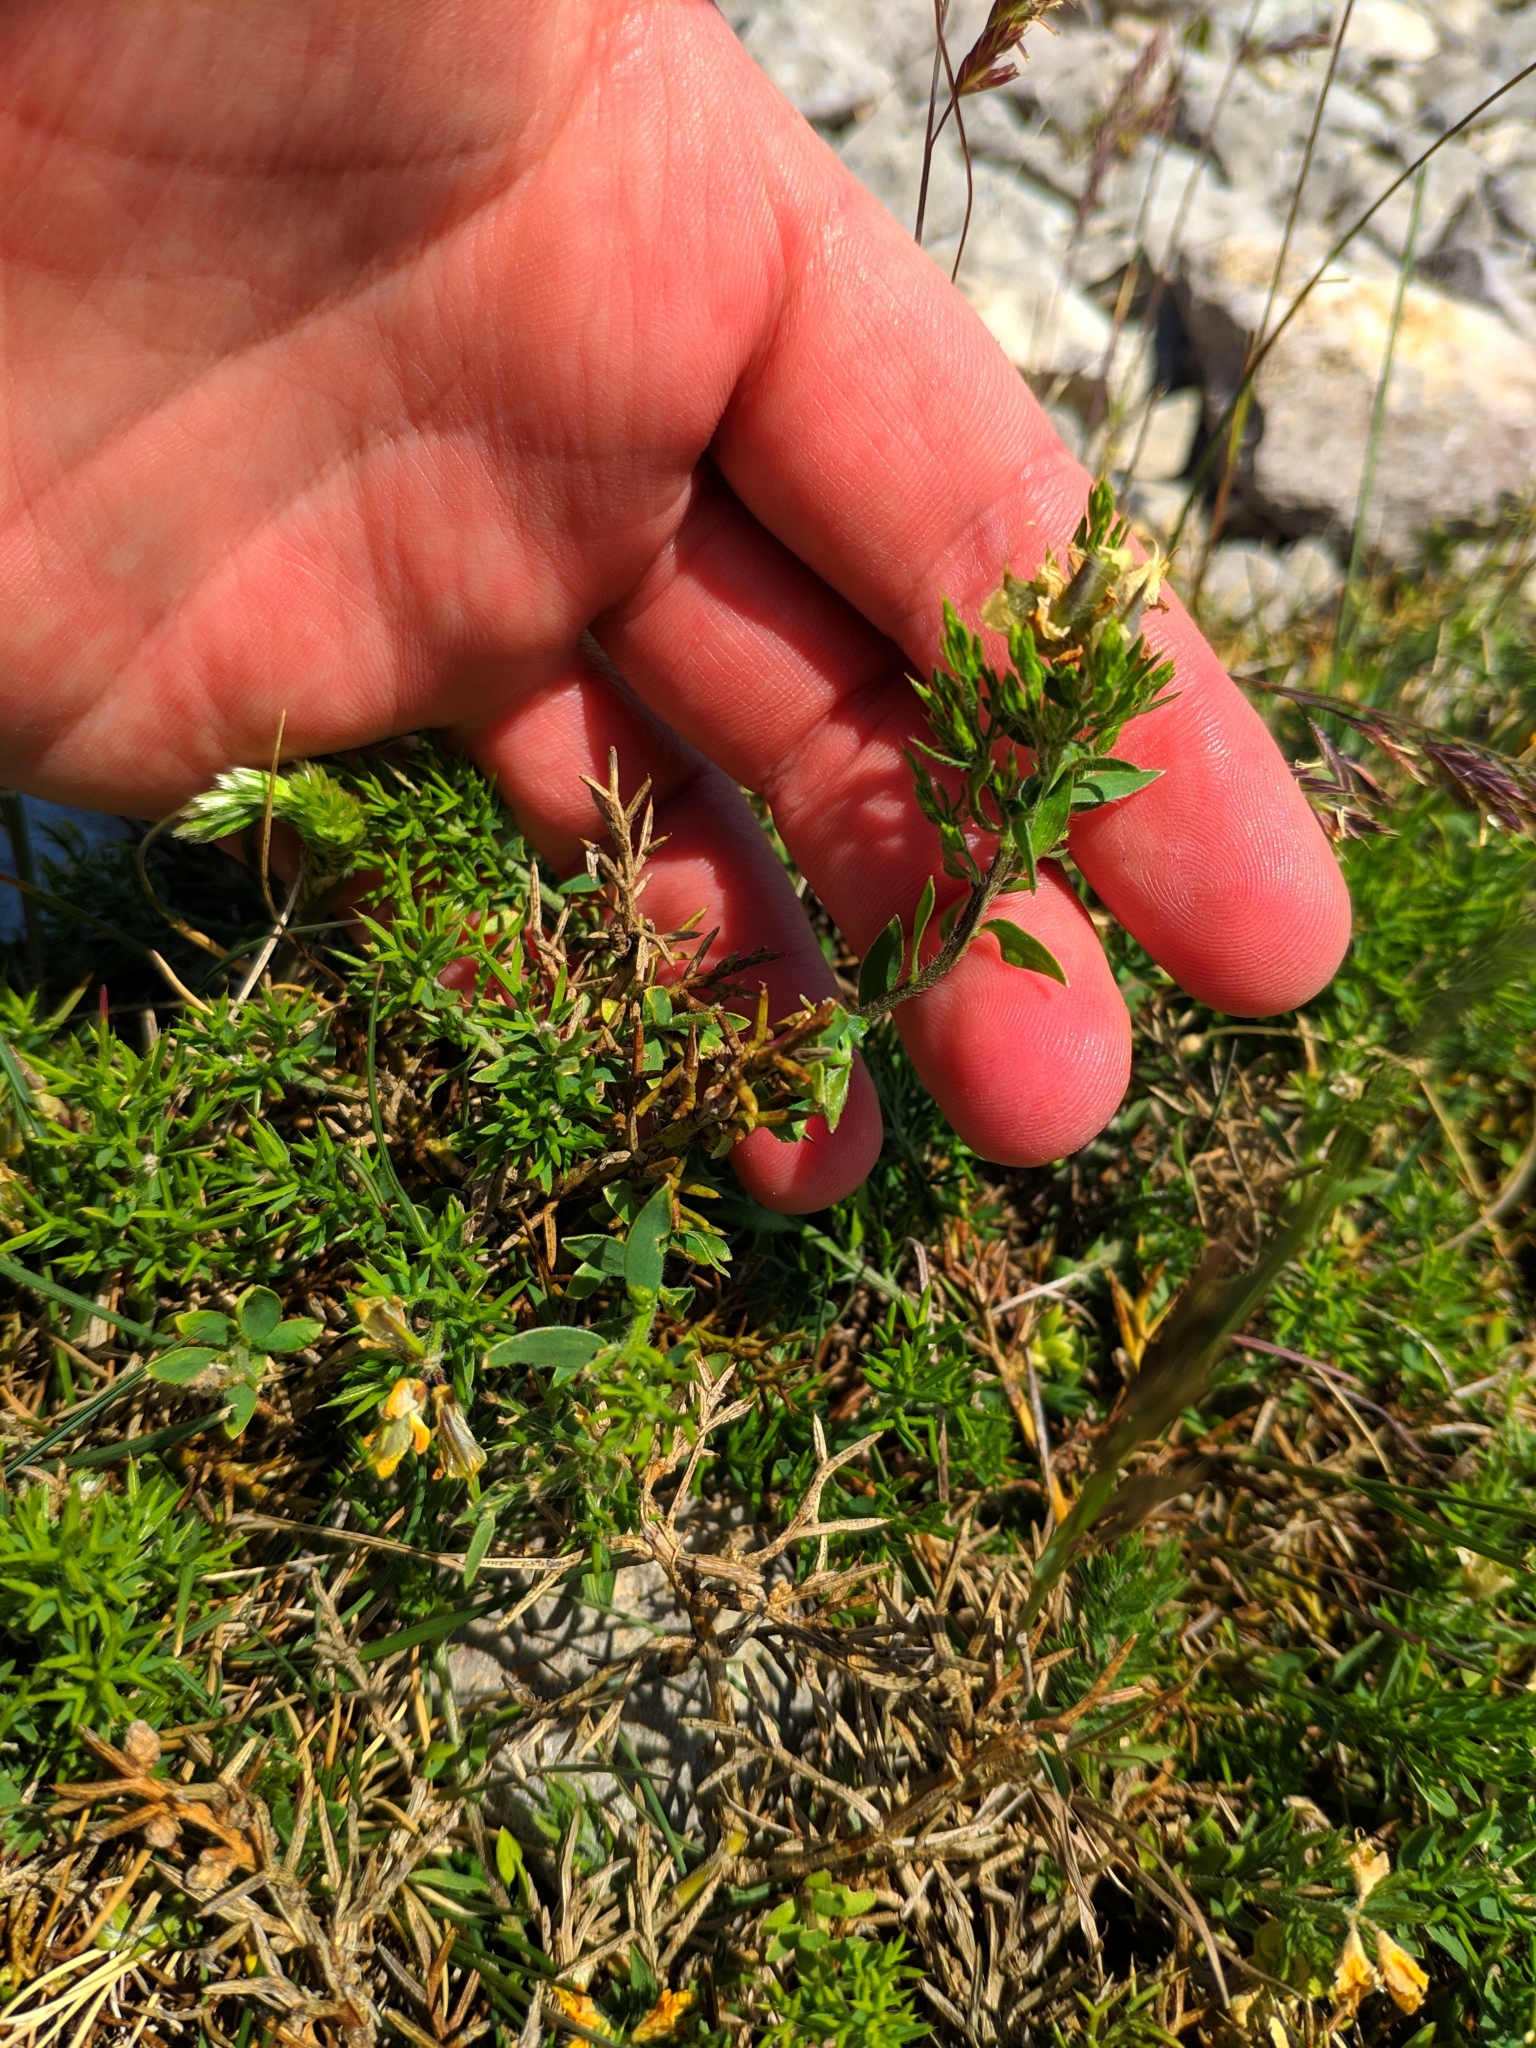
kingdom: Plantae
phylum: Tracheophyta
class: Magnoliopsida
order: Fabales
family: Fabaceae
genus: Genista
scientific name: Genista hispanica
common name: Spanish gorse
